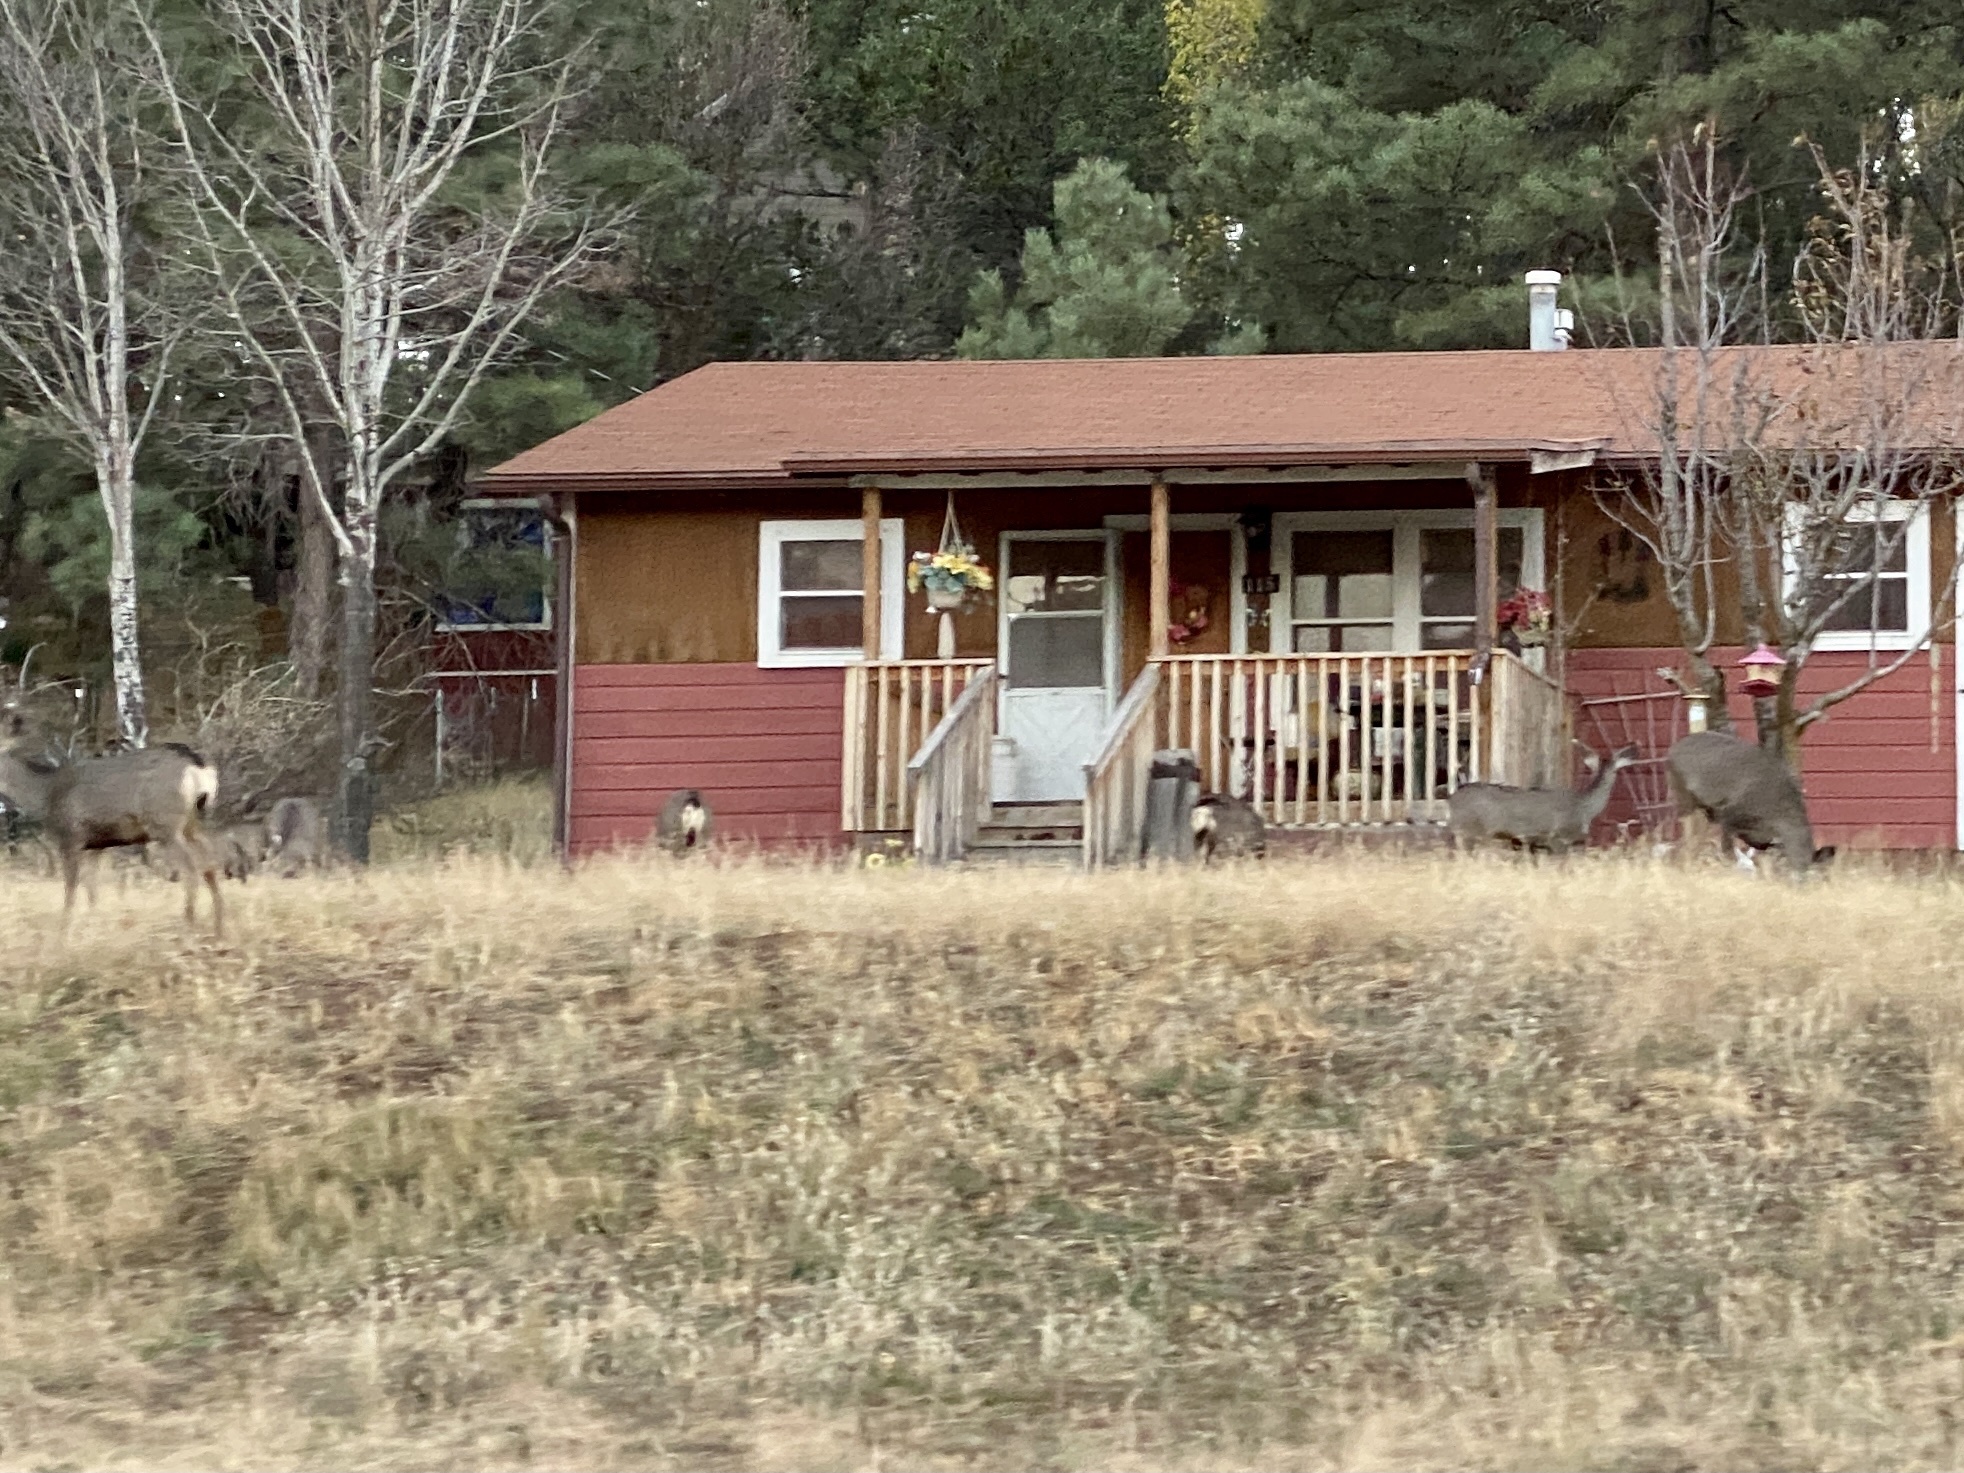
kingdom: Animalia
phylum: Chordata
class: Mammalia
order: Artiodactyla
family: Cervidae
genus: Odocoileus
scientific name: Odocoileus hemionus
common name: Mule deer
